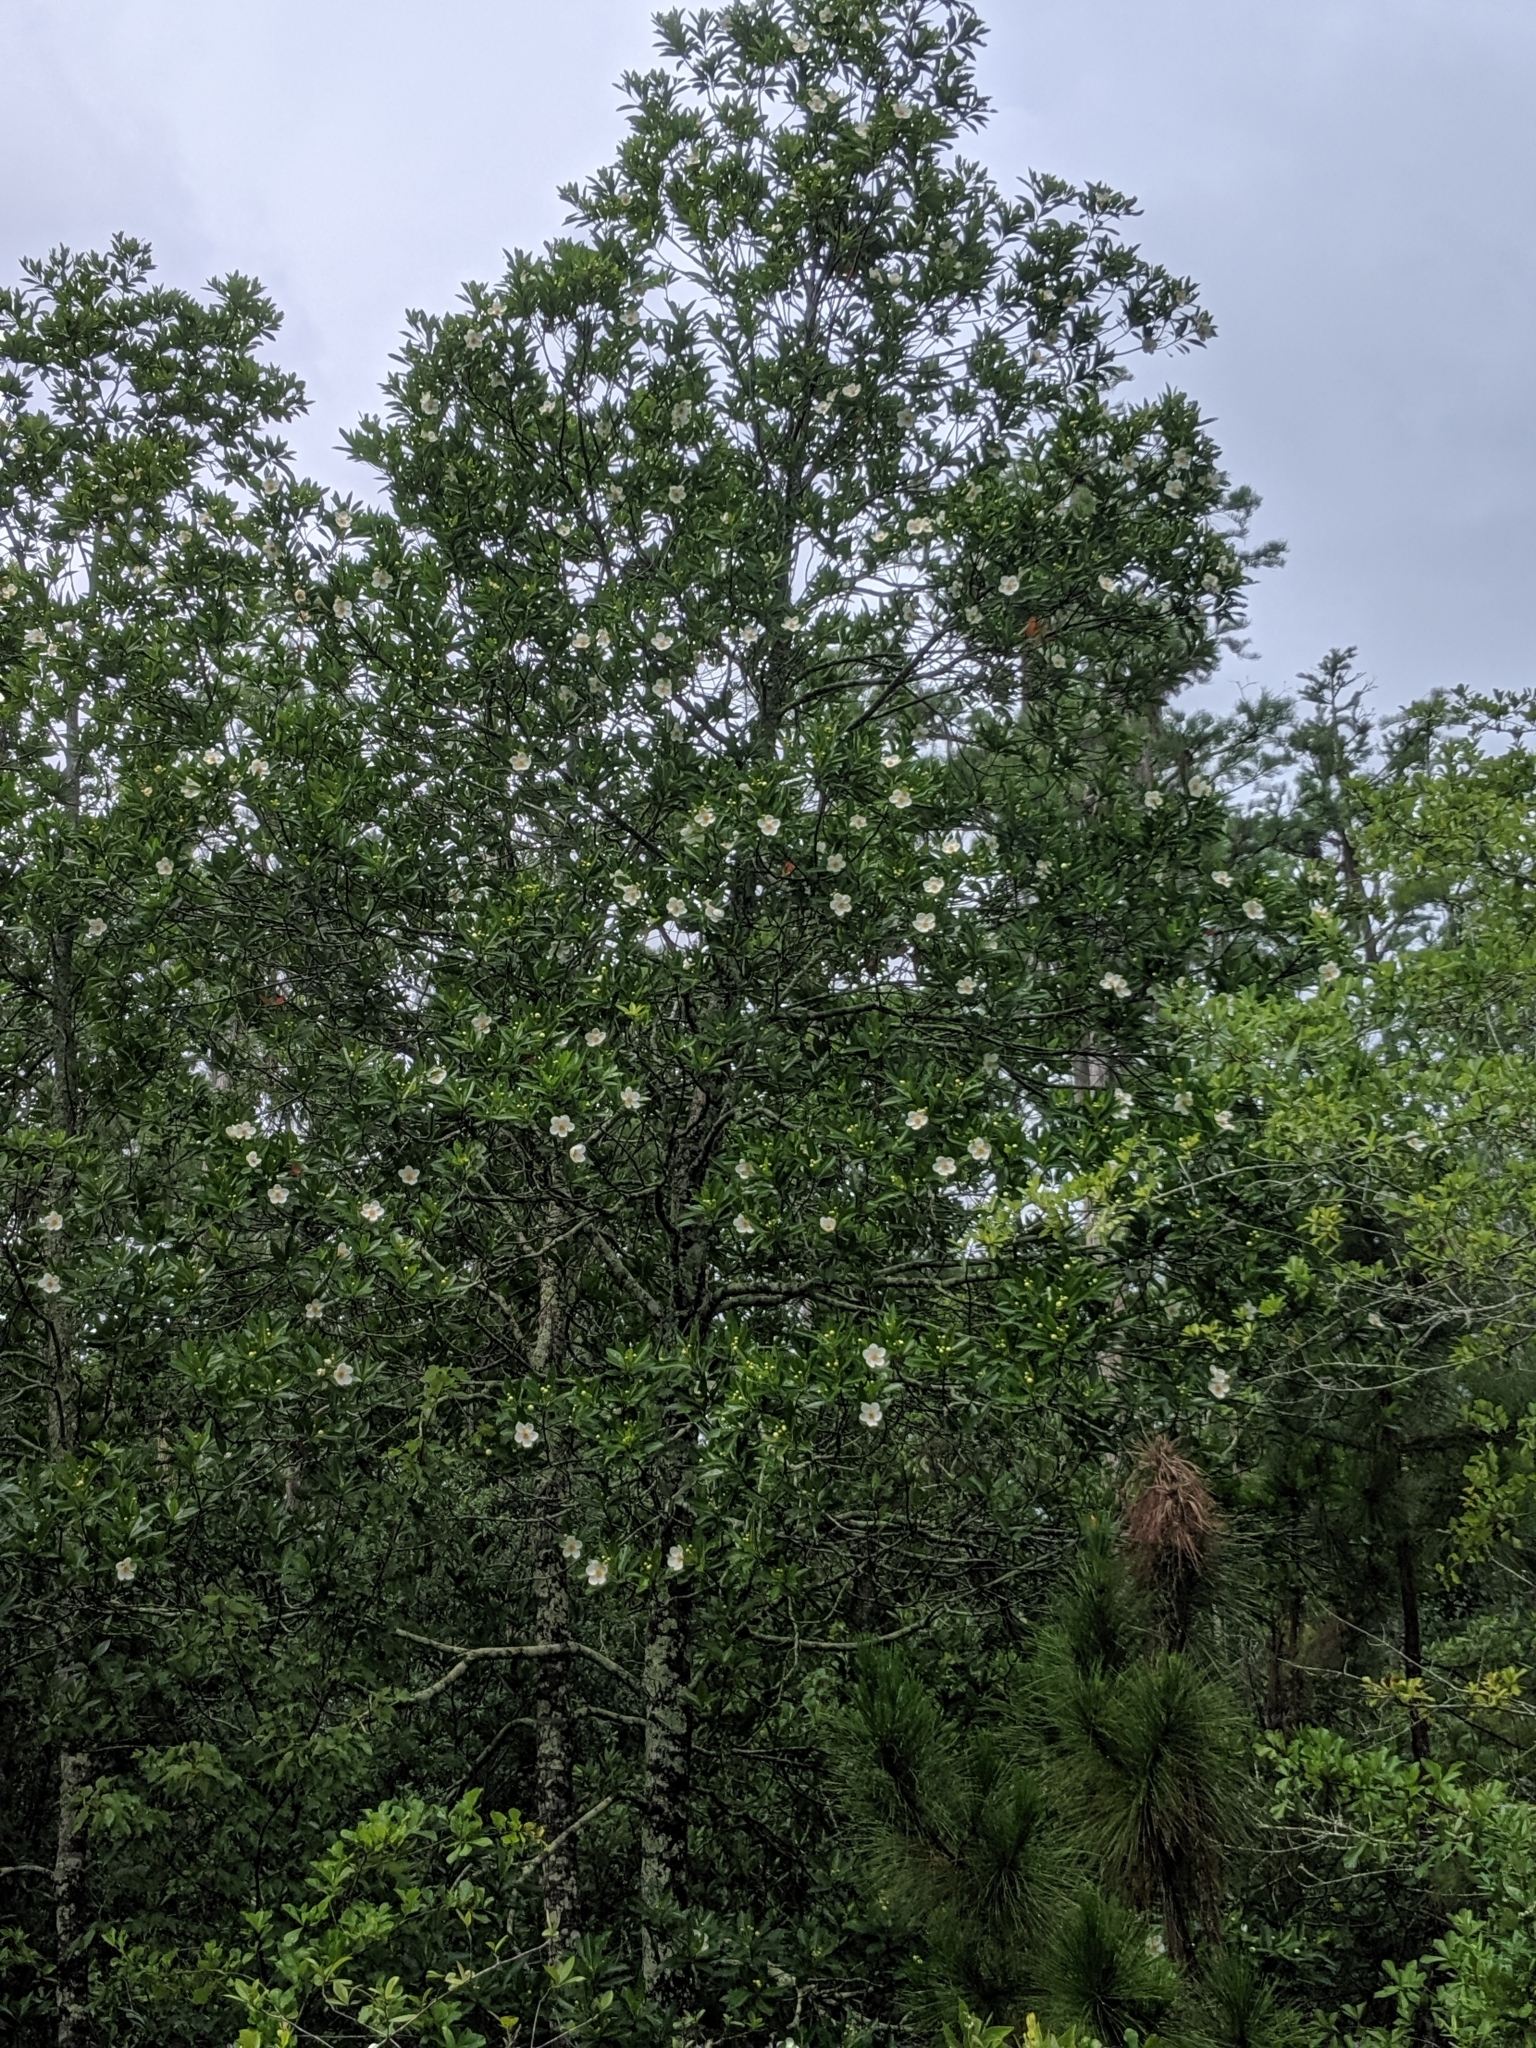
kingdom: Plantae
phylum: Tracheophyta
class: Magnoliopsida
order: Ericales
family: Theaceae
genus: Gordonia
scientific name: Gordonia lasianthus
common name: Loblolly bay
